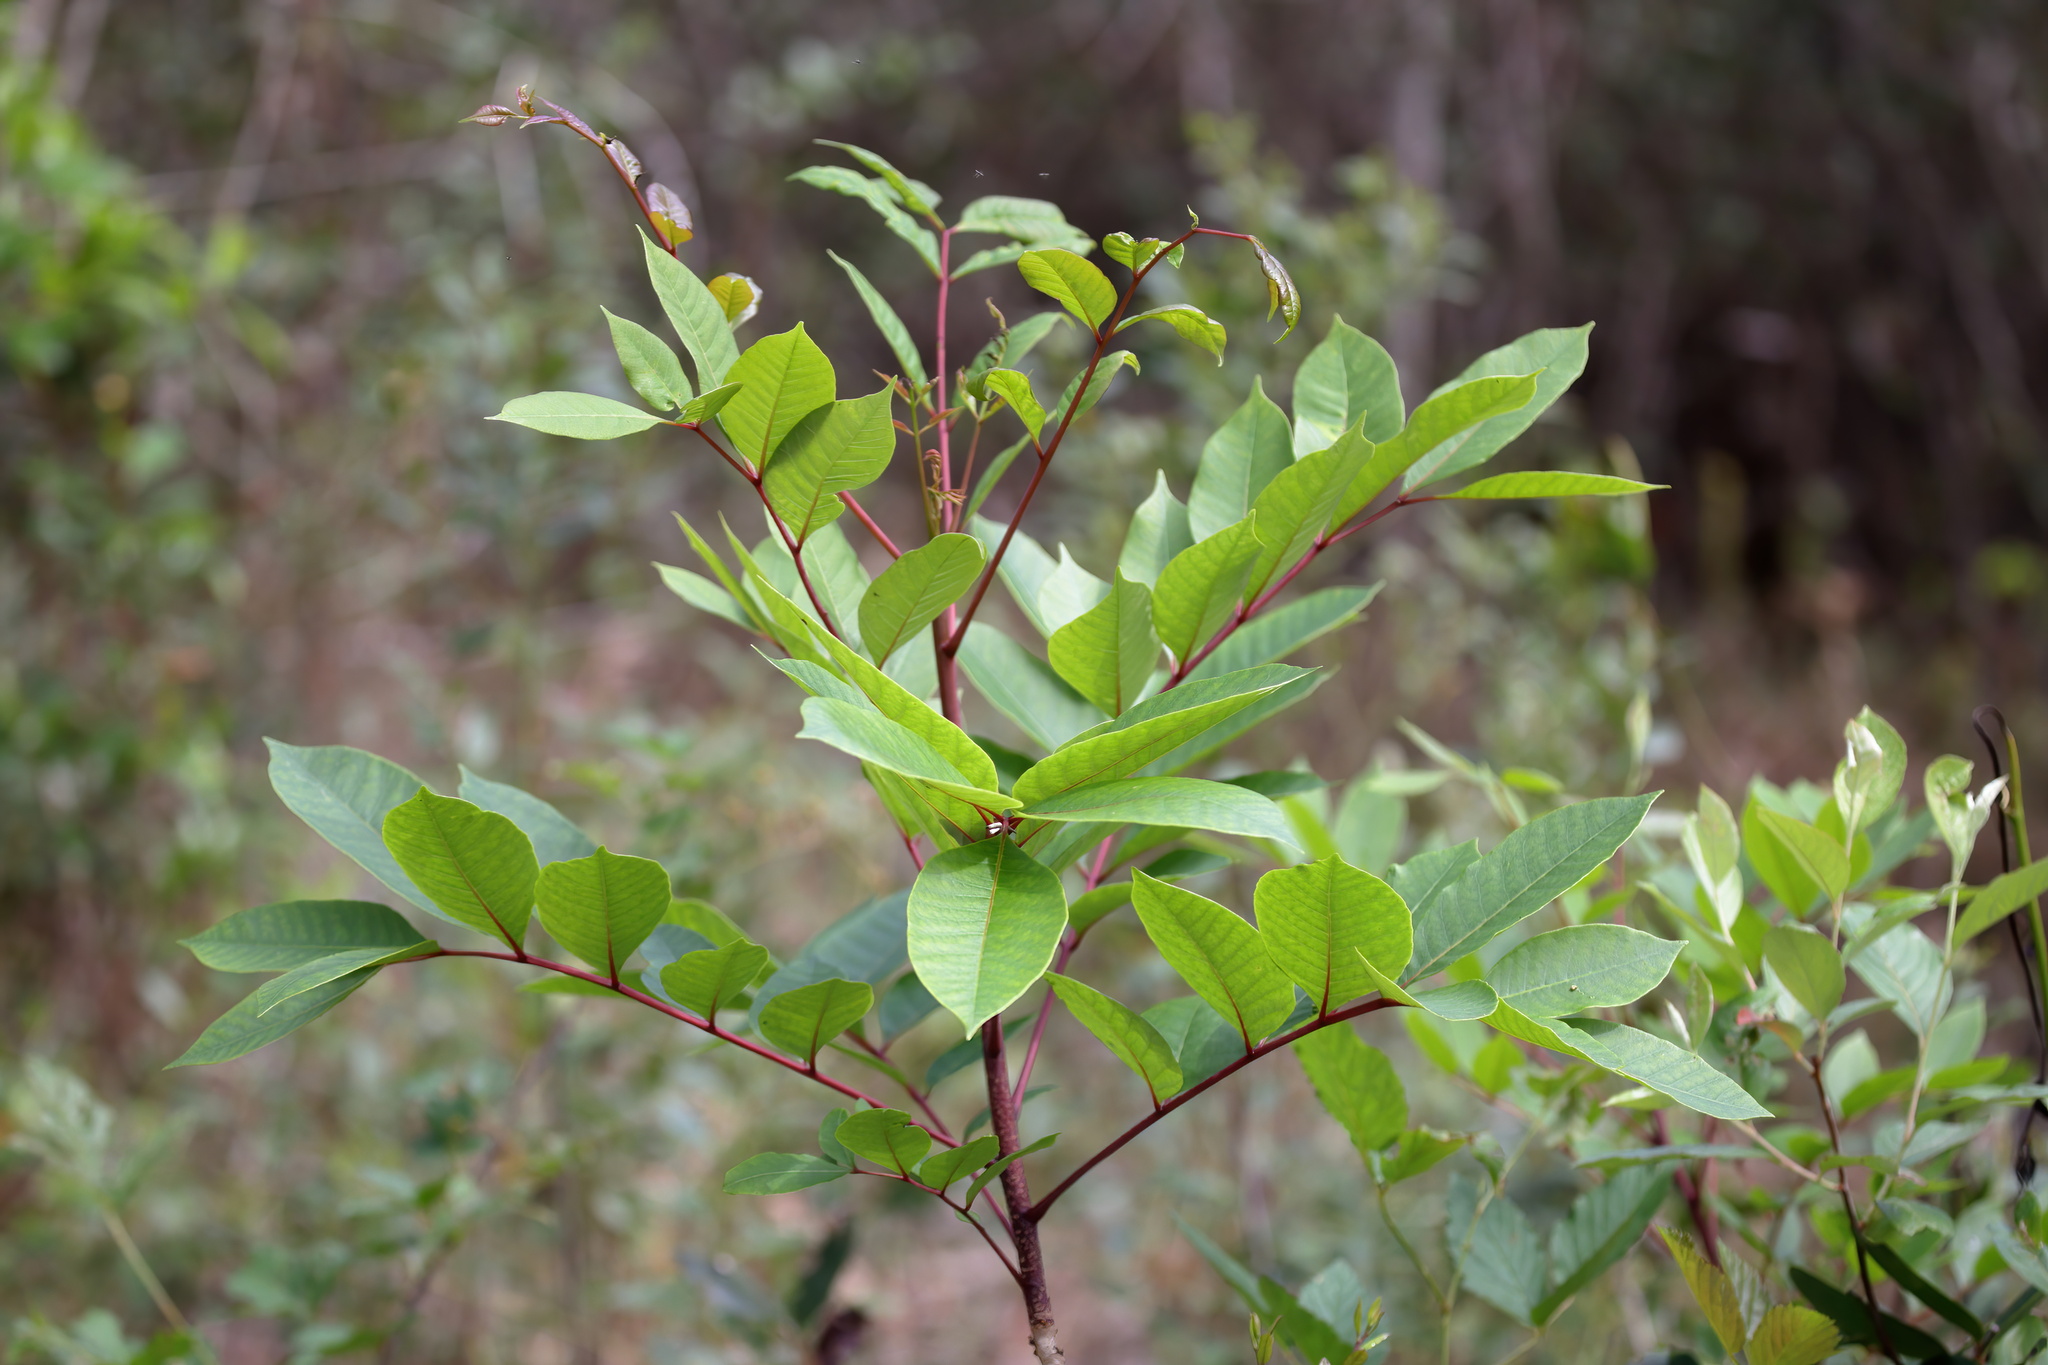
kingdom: Plantae
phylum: Tracheophyta
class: Magnoliopsida
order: Sapindales
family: Anacardiaceae
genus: Toxicodendron
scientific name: Toxicodendron vernix
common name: Poison sumac
